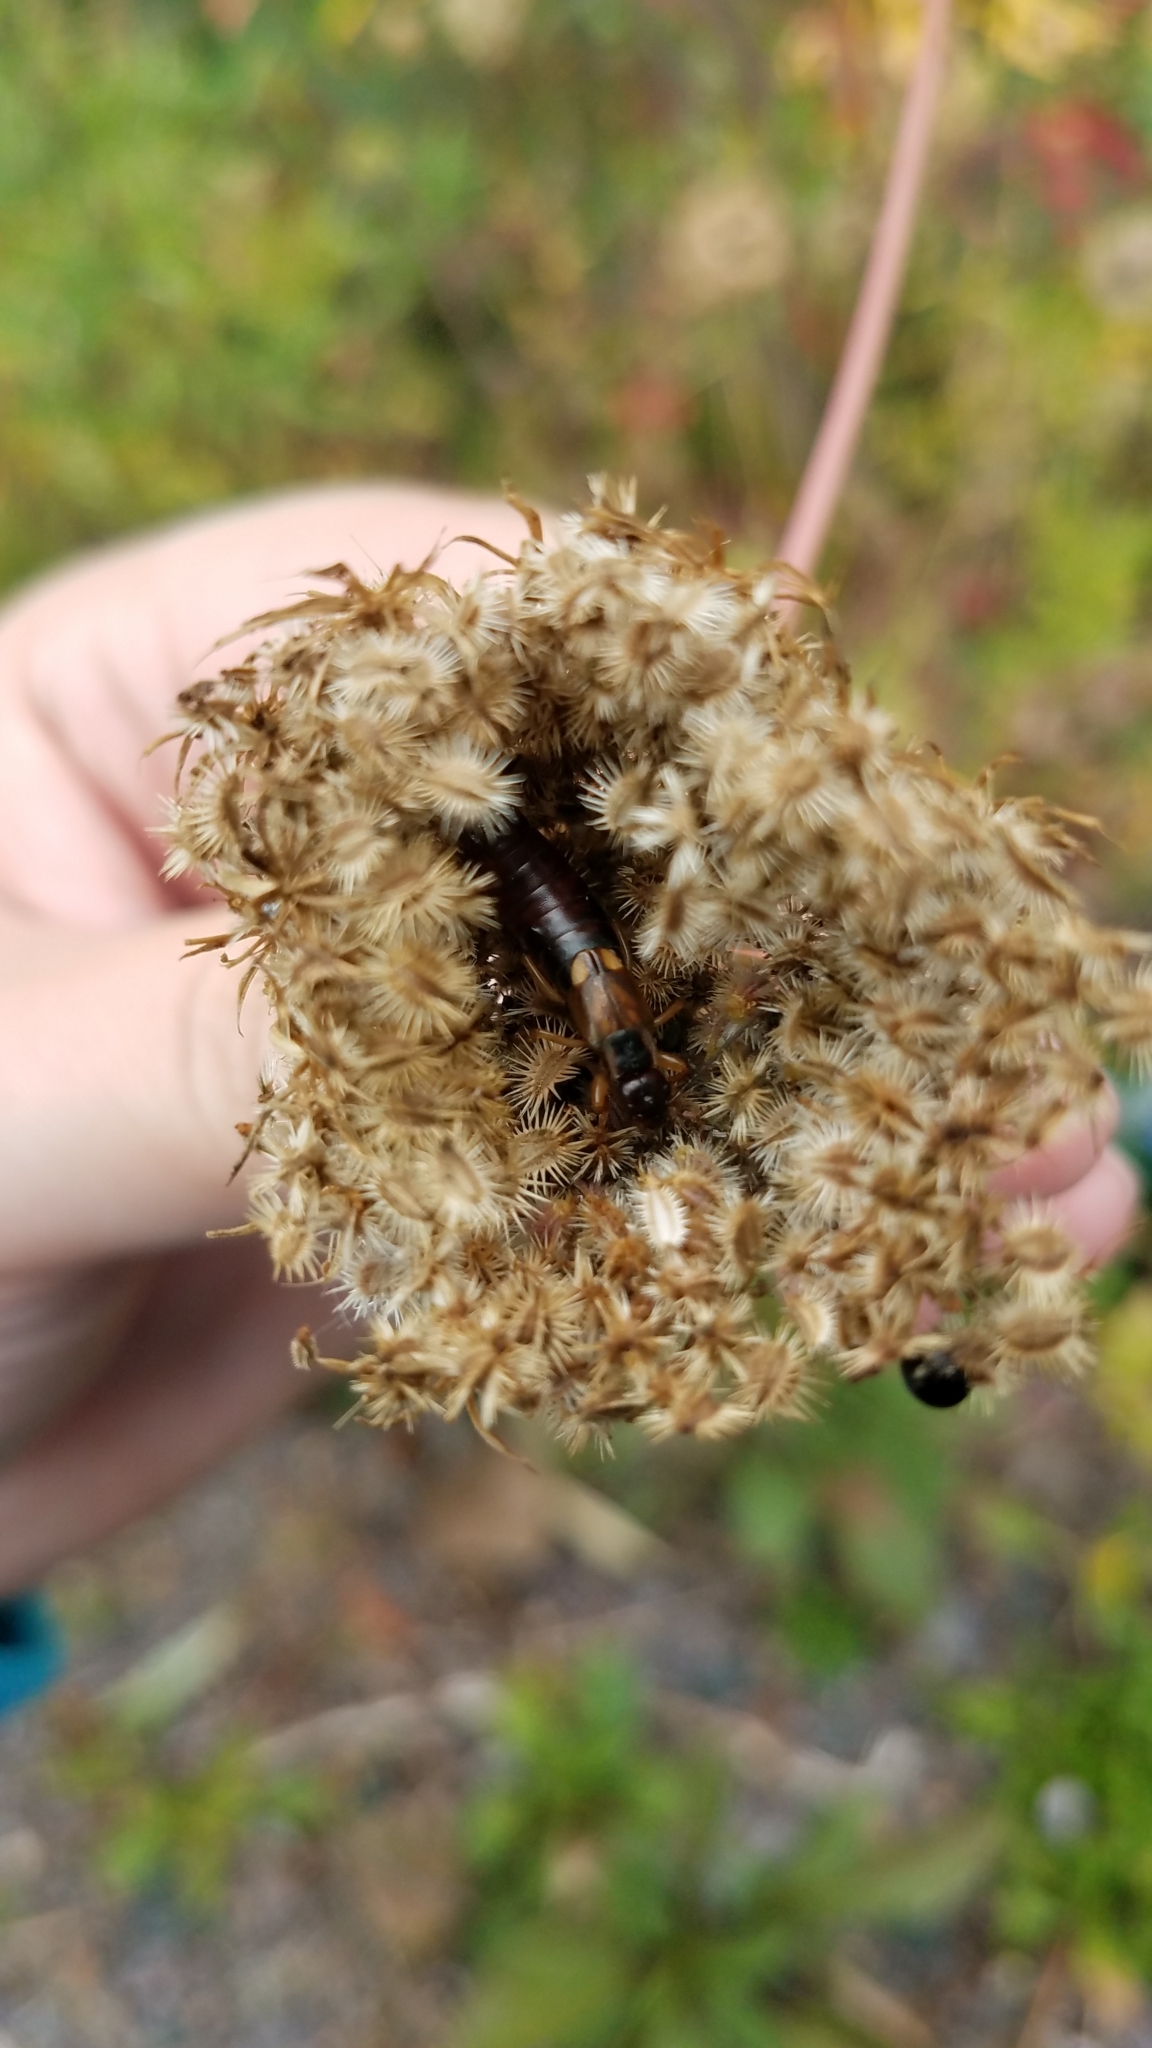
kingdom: Animalia
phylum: Arthropoda
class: Insecta
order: Dermaptera
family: Forficulidae
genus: Forficula
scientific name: Forficula
